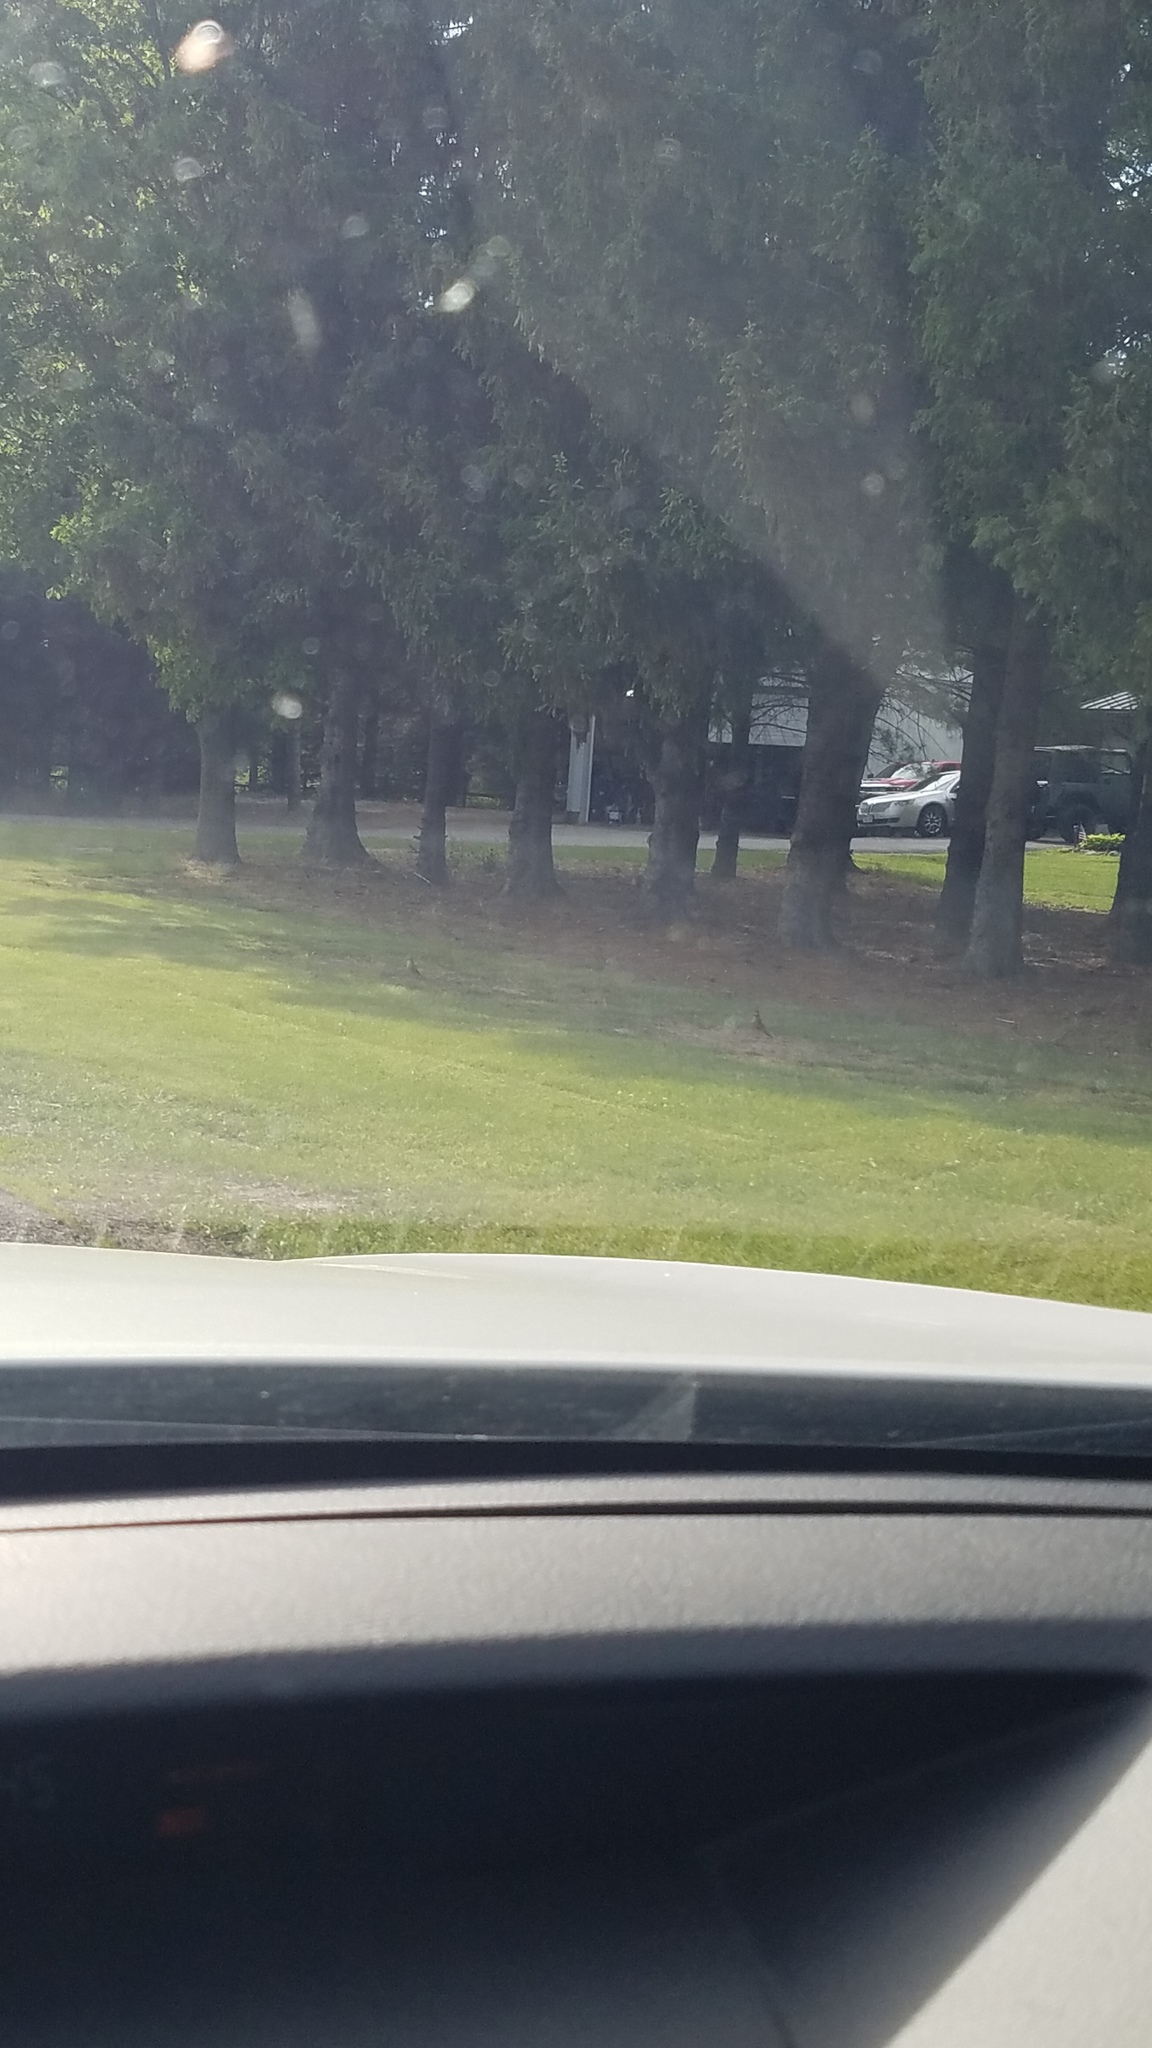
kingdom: Animalia
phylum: Chordata
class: Aves
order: Passeriformes
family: Turdidae
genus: Turdus
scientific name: Turdus migratorius
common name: American robin
